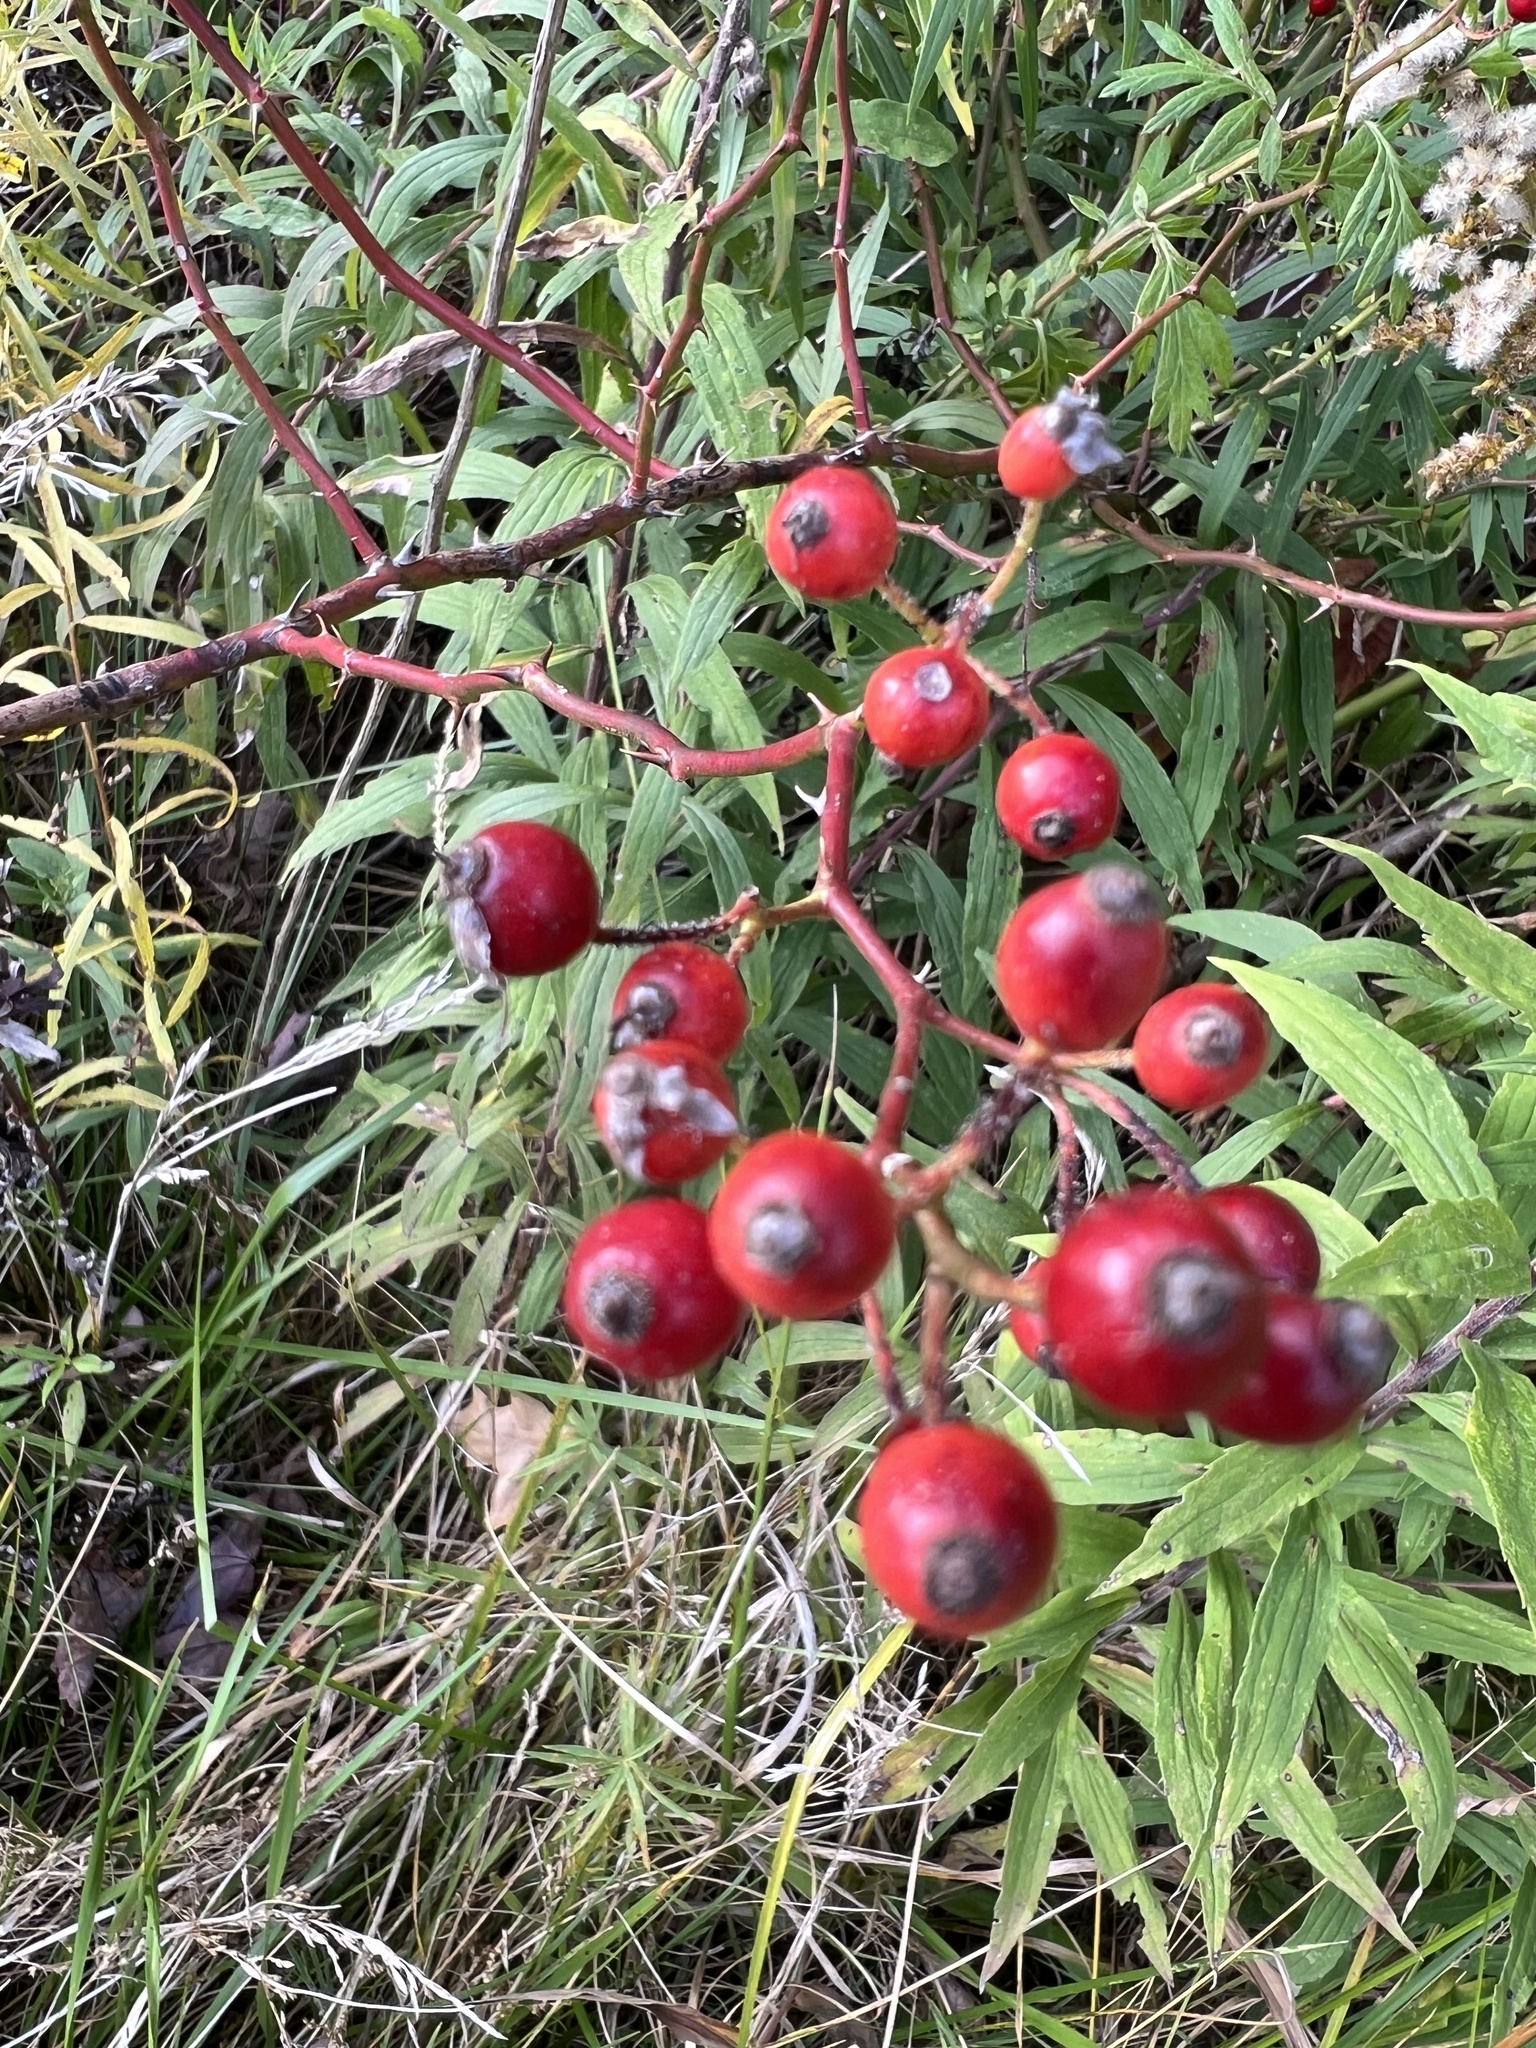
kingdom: Plantae
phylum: Tracheophyta
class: Magnoliopsida
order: Rosales
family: Rosaceae
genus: Rosa
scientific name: Rosa multiflora
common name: Multiflora rose
